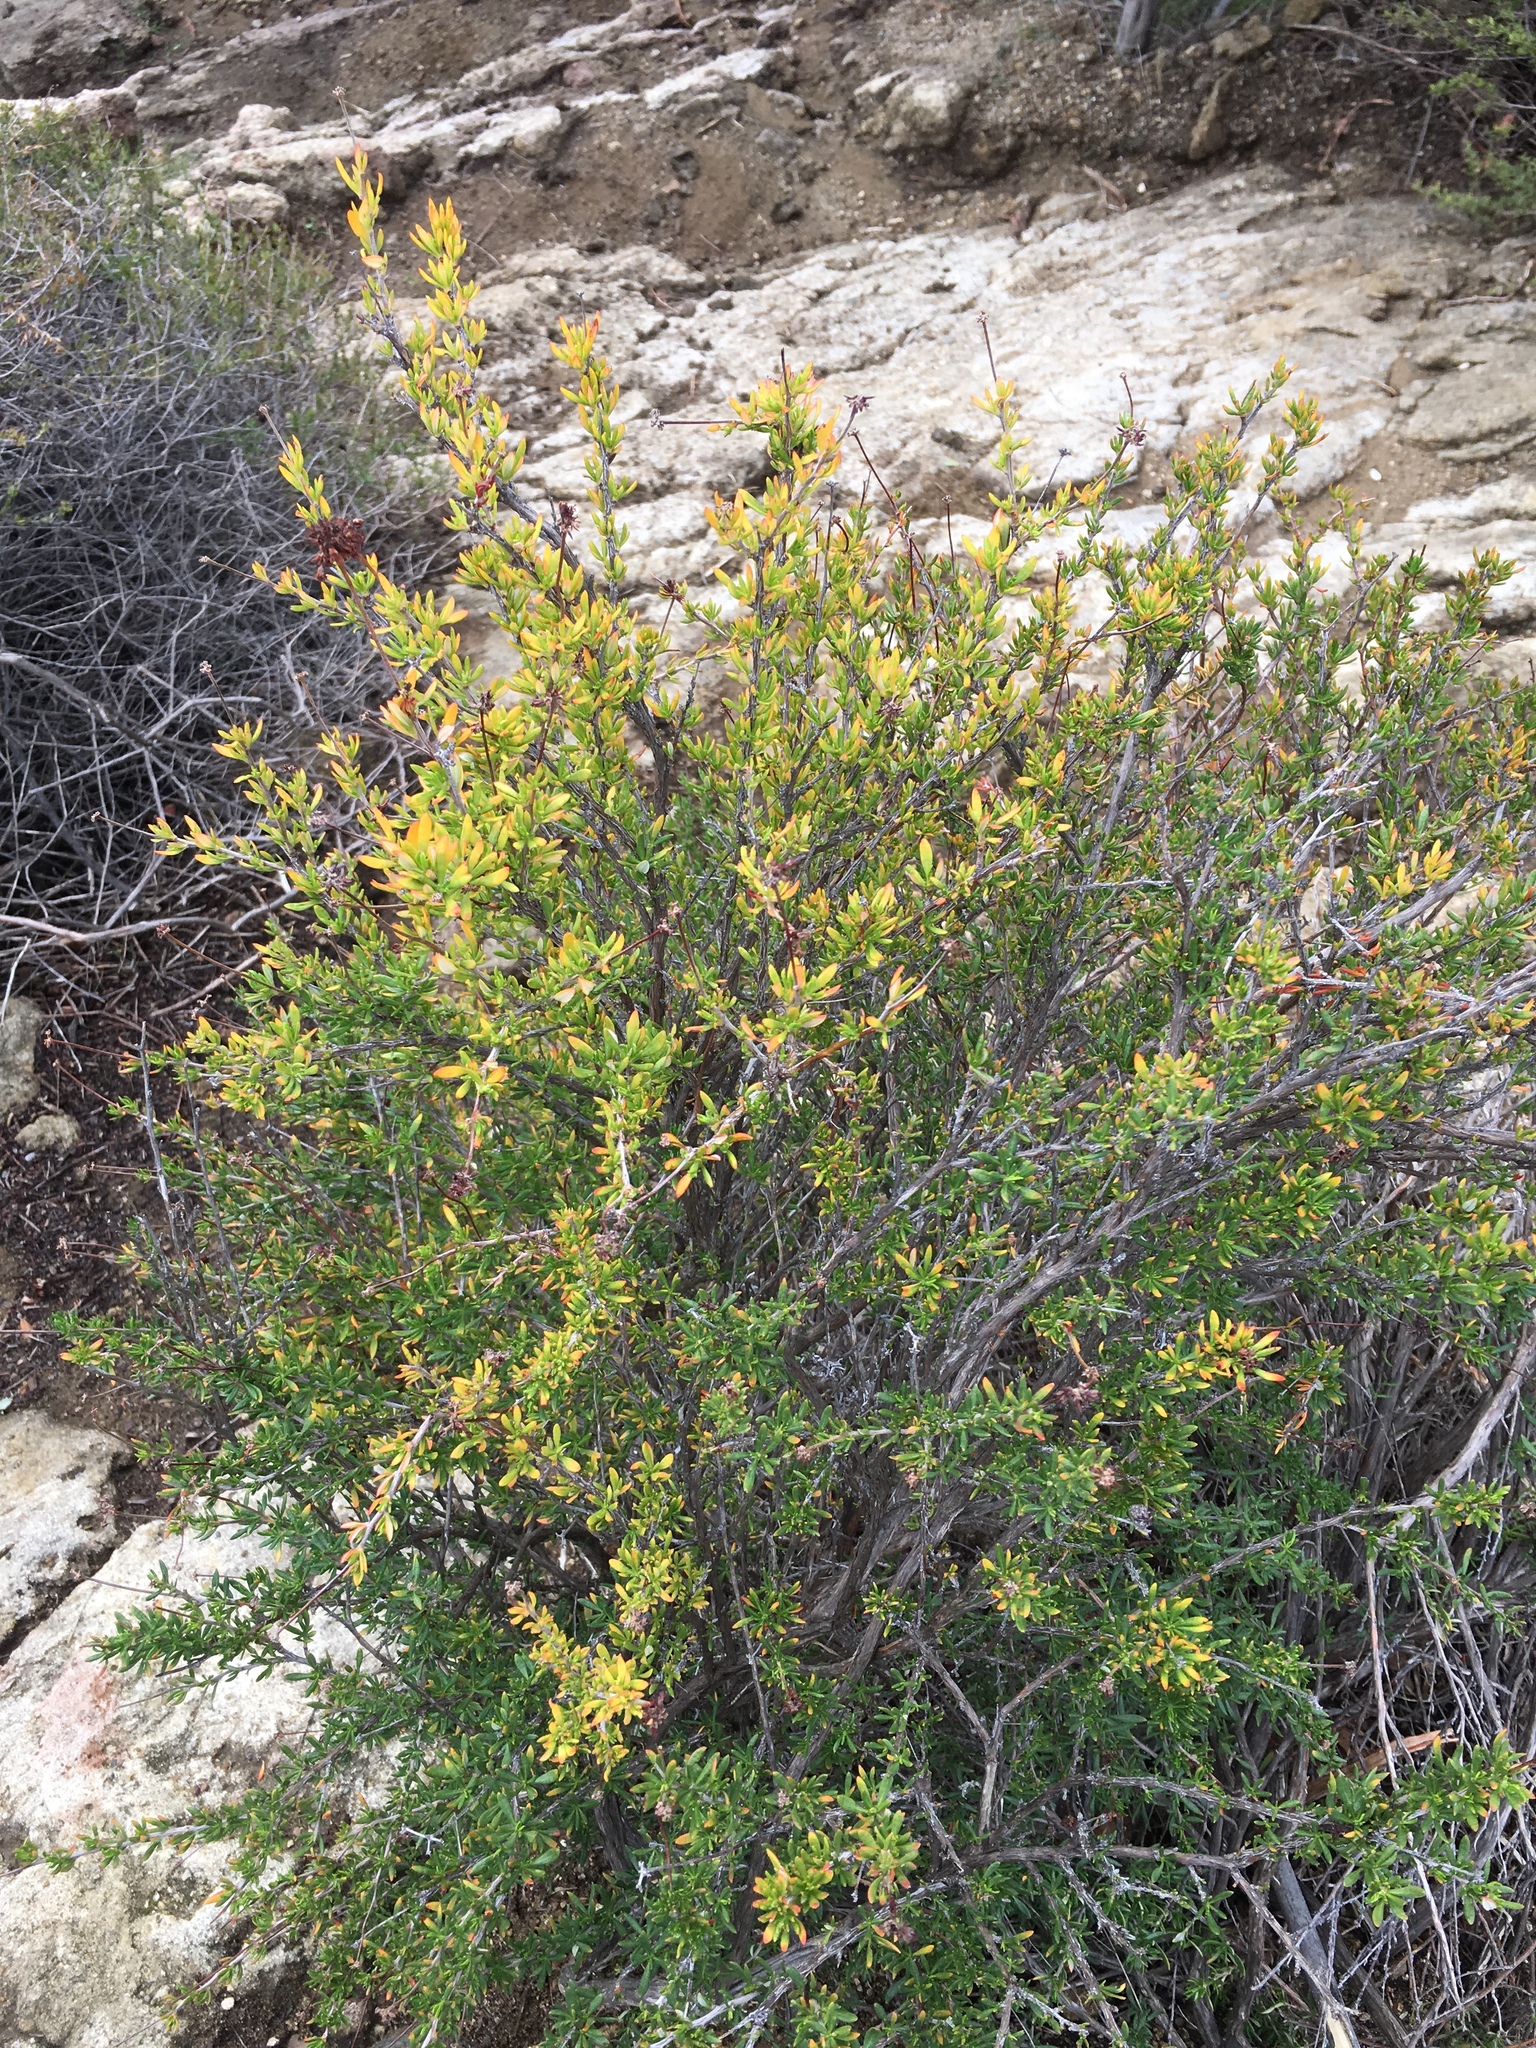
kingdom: Plantae
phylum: Tracheophyta
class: Magnoliopsida
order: Caryophyllales
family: Polygonaceae
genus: Eriogonum
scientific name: Eriogonum fasciculatum
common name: California wild buckwheat
